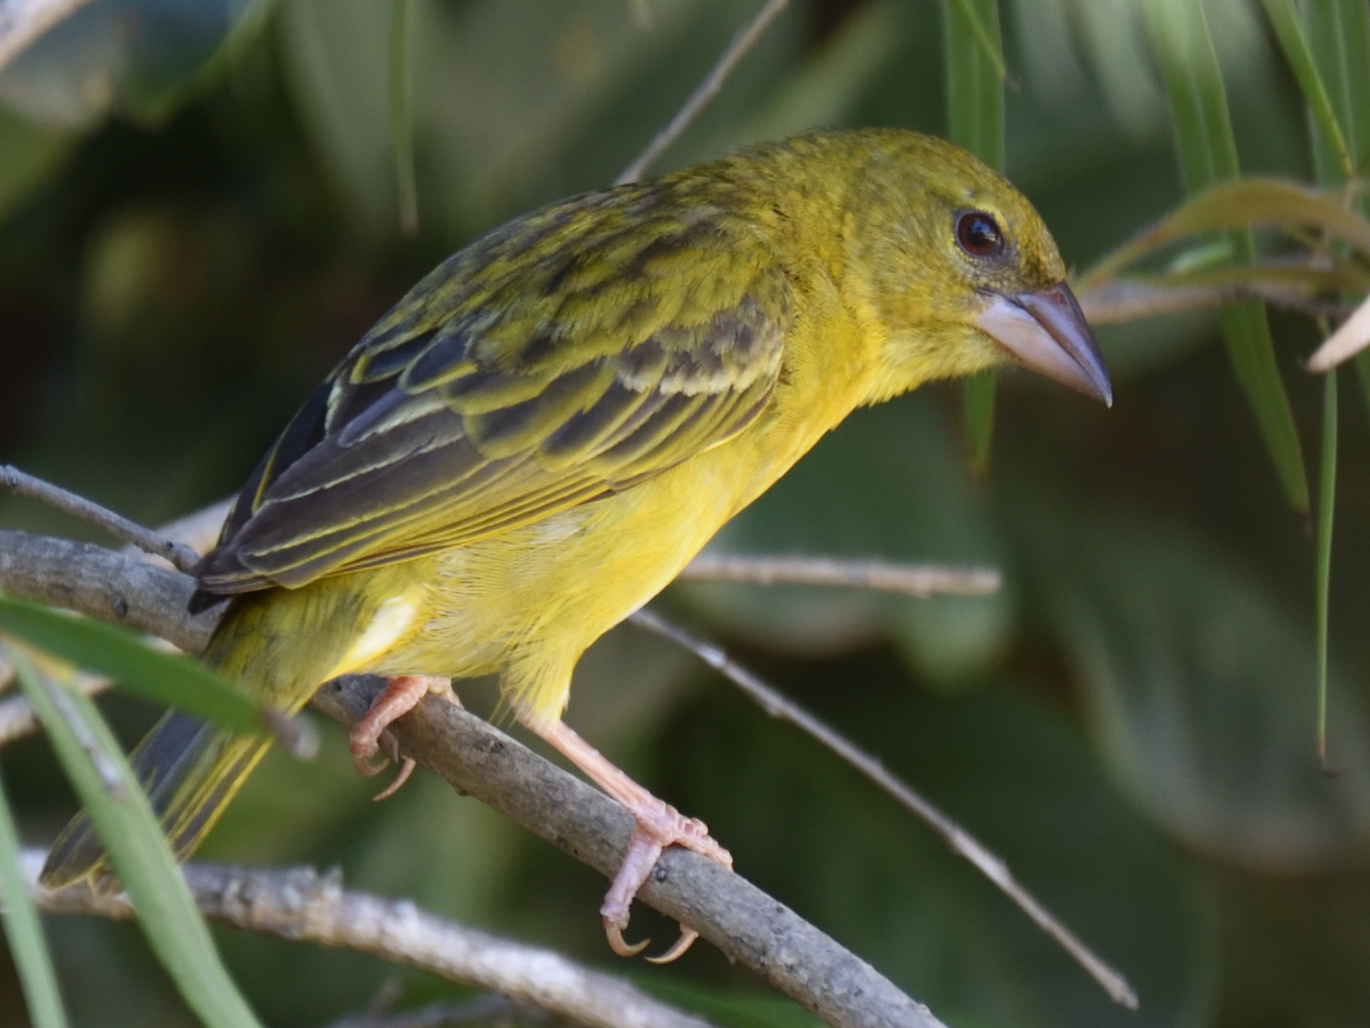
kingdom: Animalia
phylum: Chordata
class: Aves
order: Passeriformes
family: Ploceidae
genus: Ploceus
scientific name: Ploceus cucullatus
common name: Village weaver
